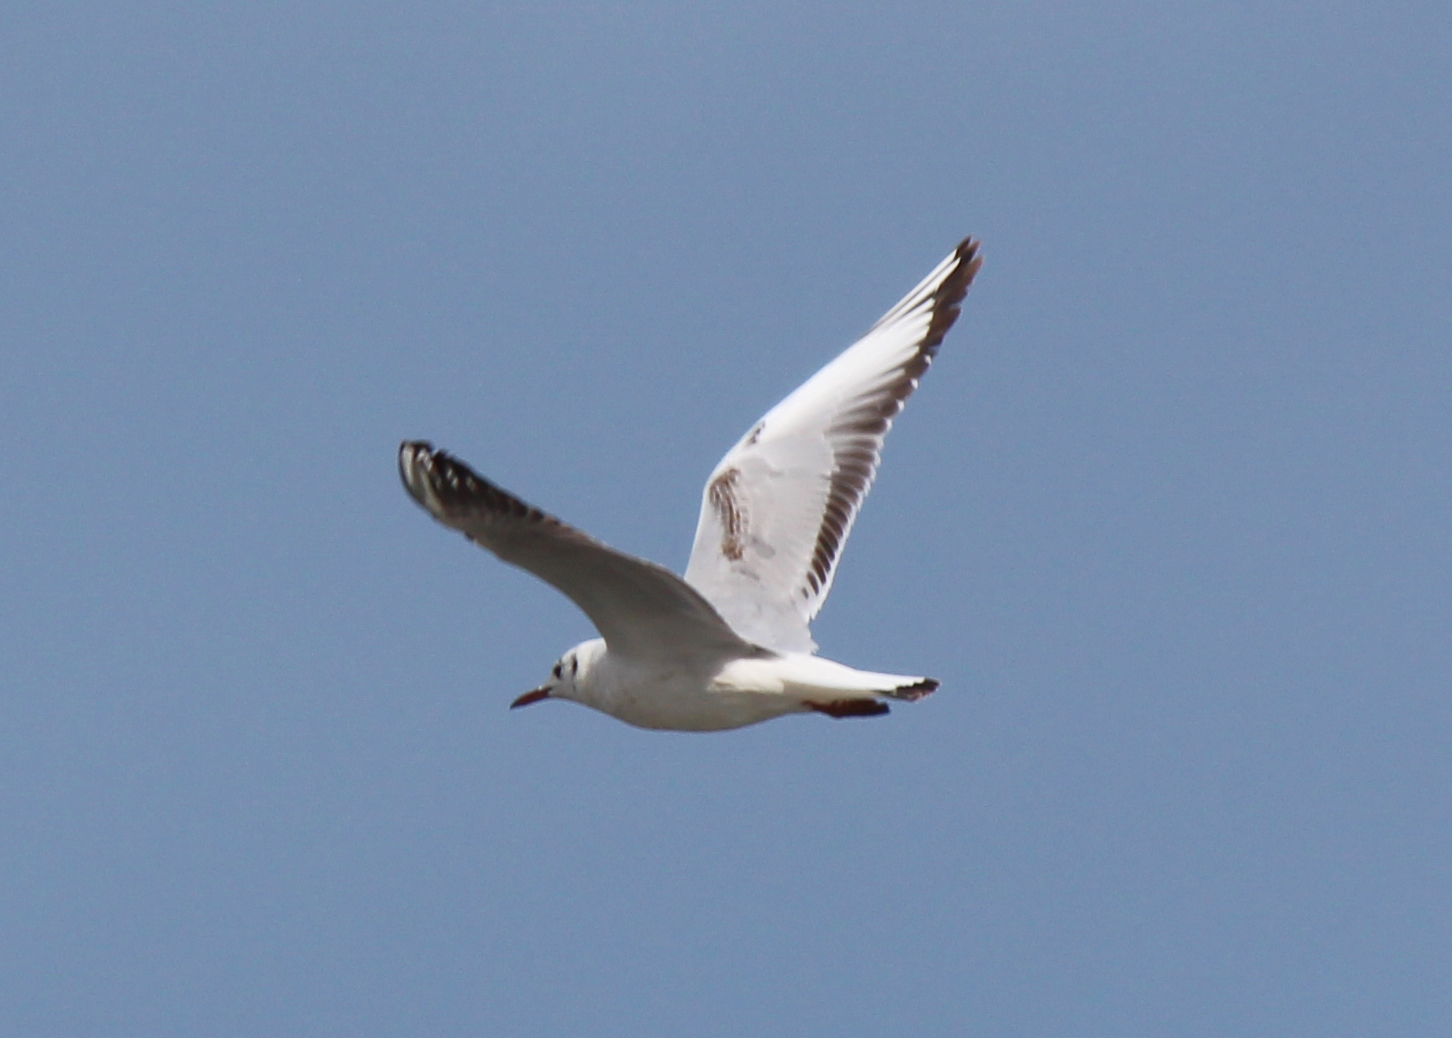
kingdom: Animalia
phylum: Chordata
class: Aves
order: Charadriiformes
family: Laridae
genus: Chroicocephalus
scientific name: Chroicocephalus ridibundus
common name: Black-headed gull
